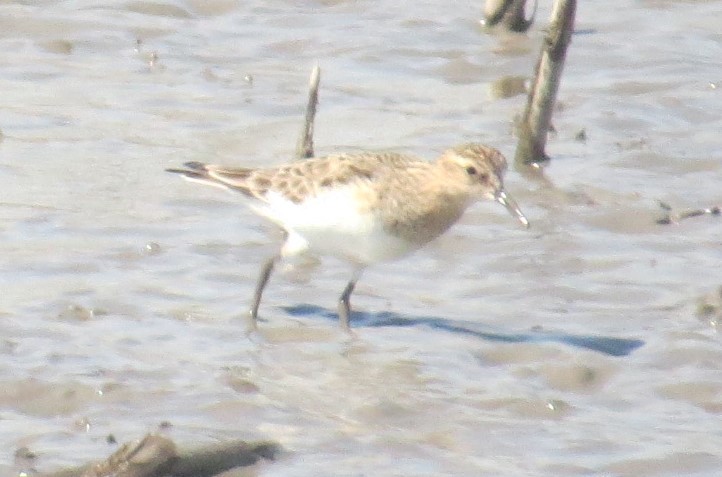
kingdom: Animalia
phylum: Chordata
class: Aves
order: Charadriiformes
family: Scolopacidae
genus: Calidris
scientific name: Calidris bairdii
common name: Baird's sandpiper
